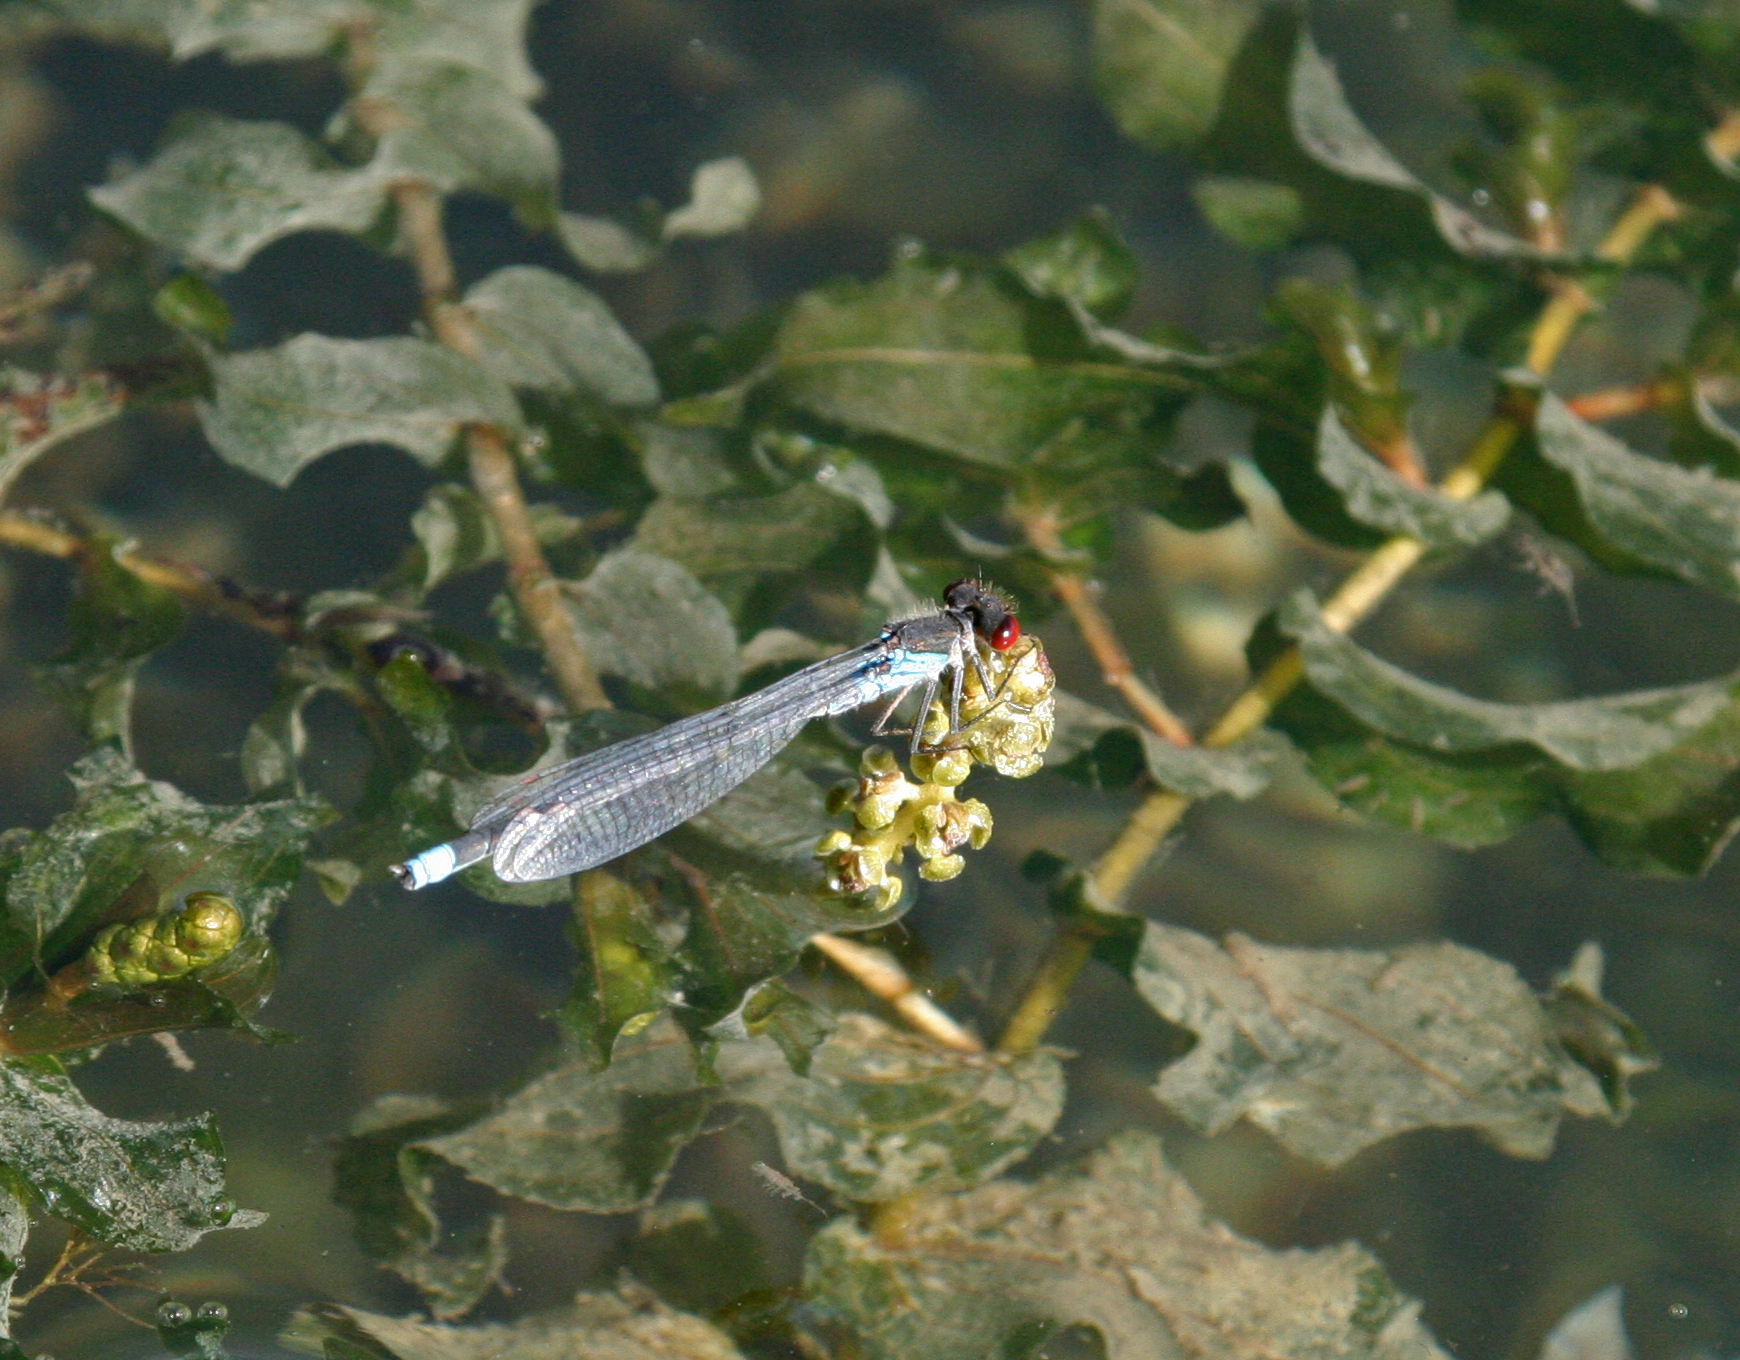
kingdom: Animalia
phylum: Arthropoda
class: Insecta
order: Odonata
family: Coenagrionidae
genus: Erythromma
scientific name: Erythromma najas
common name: Red-eyed damselfly
